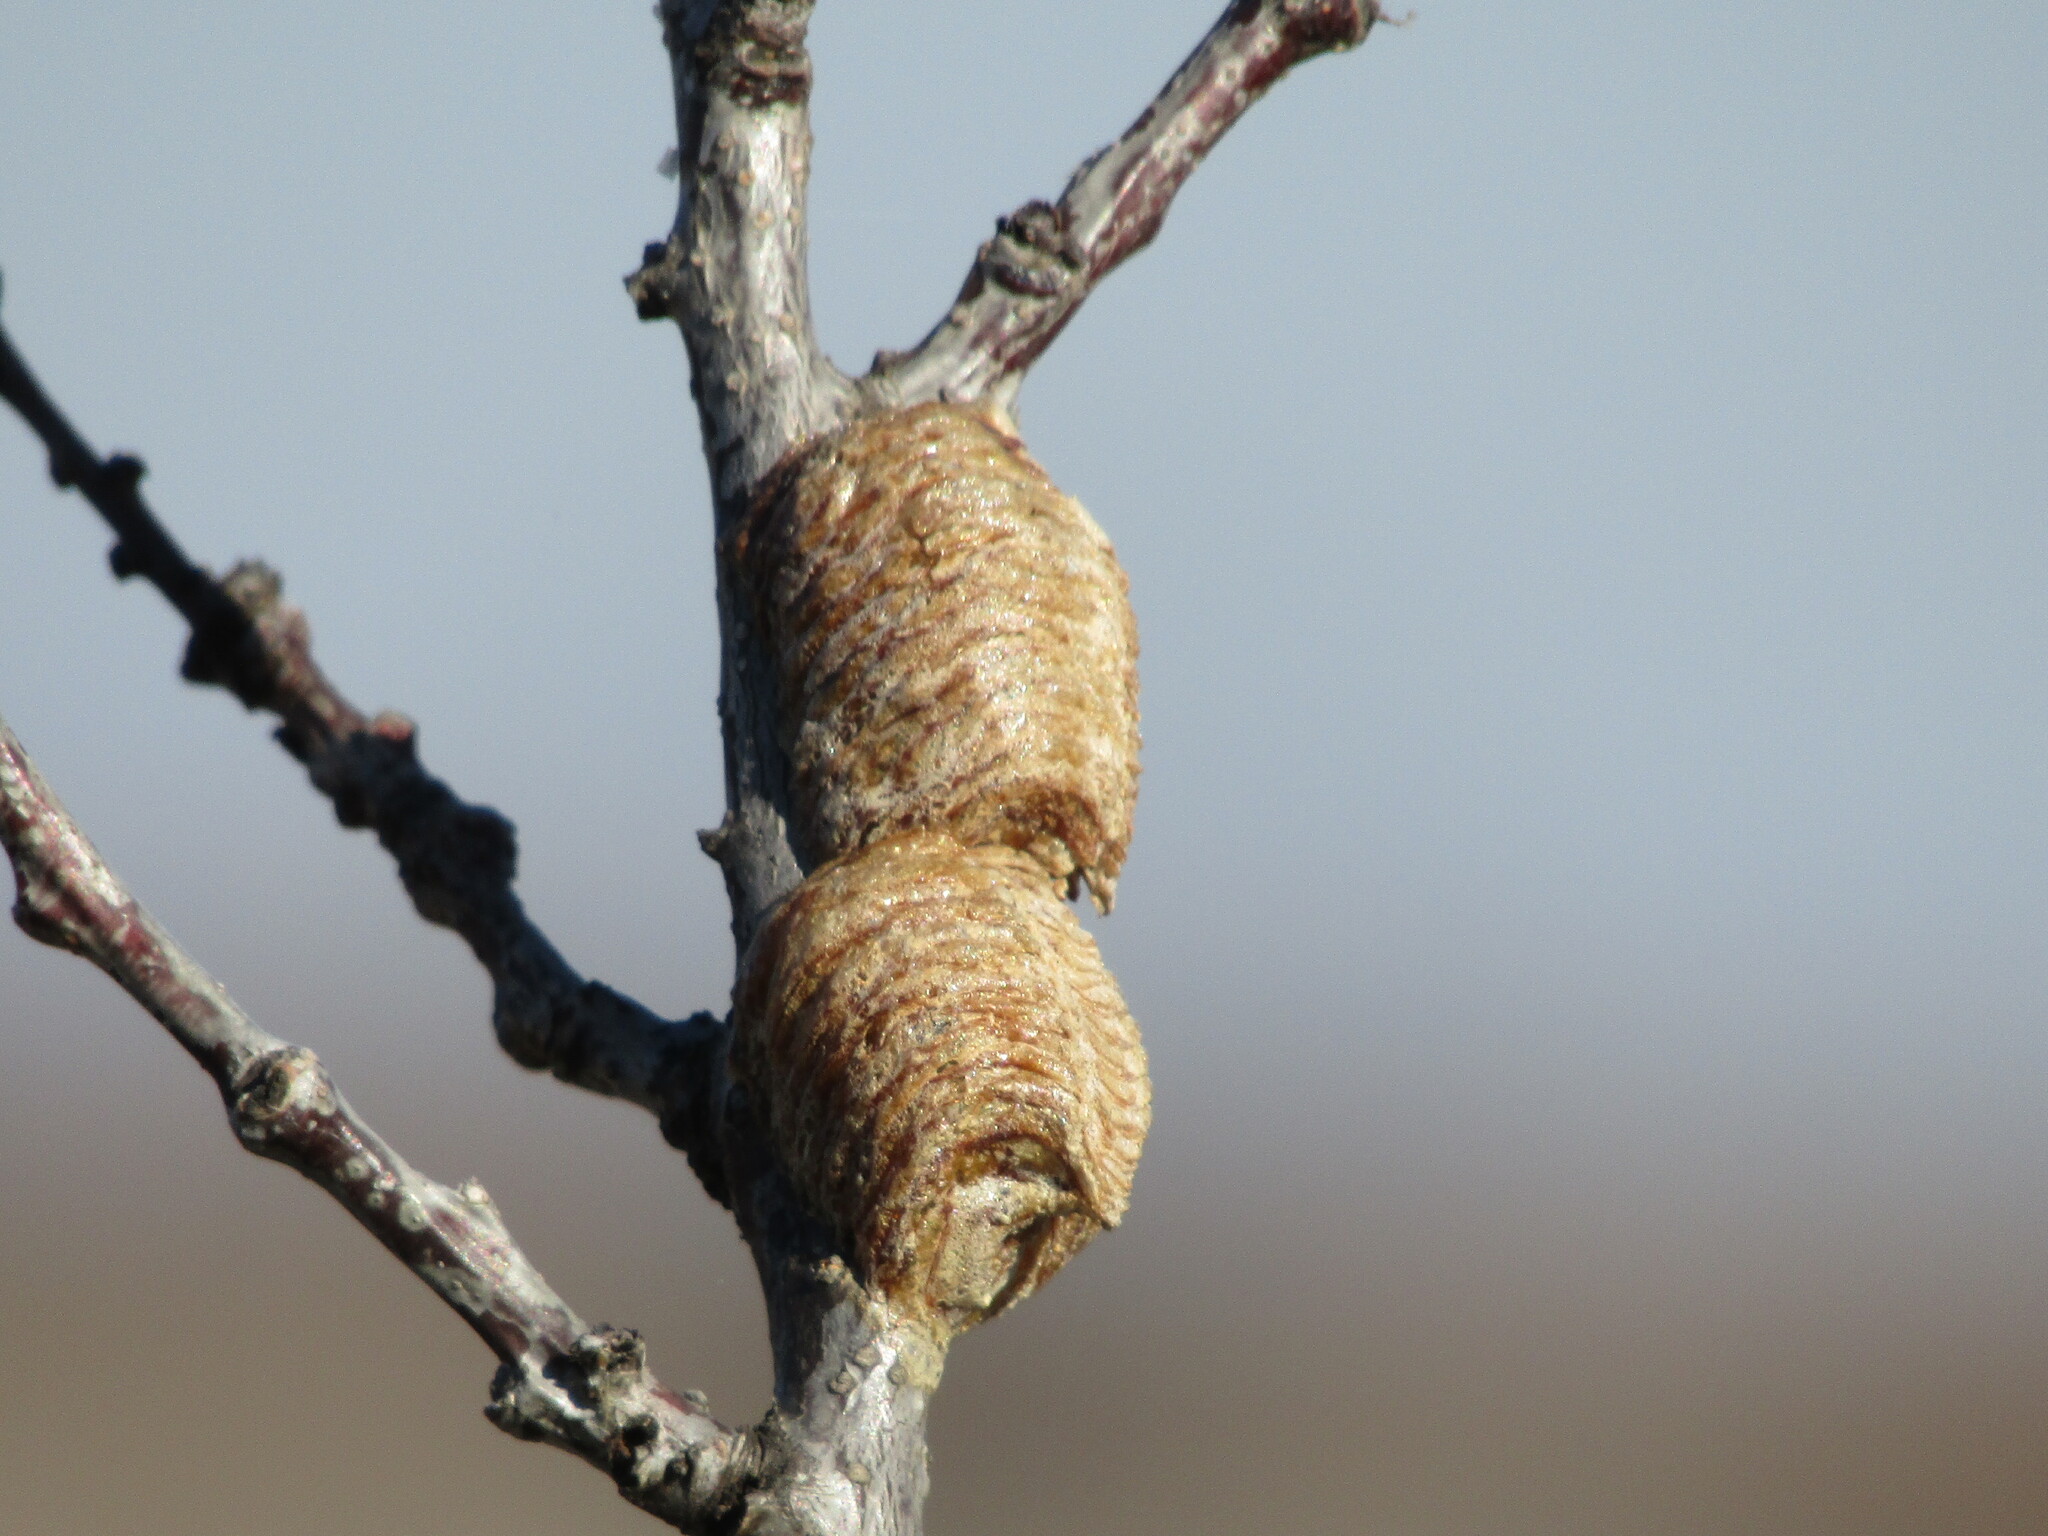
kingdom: Animalia
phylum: Arthropoda
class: Insecta
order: Mantodea
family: Mantidae
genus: Hierodula
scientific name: Hierodula transcaucasica
